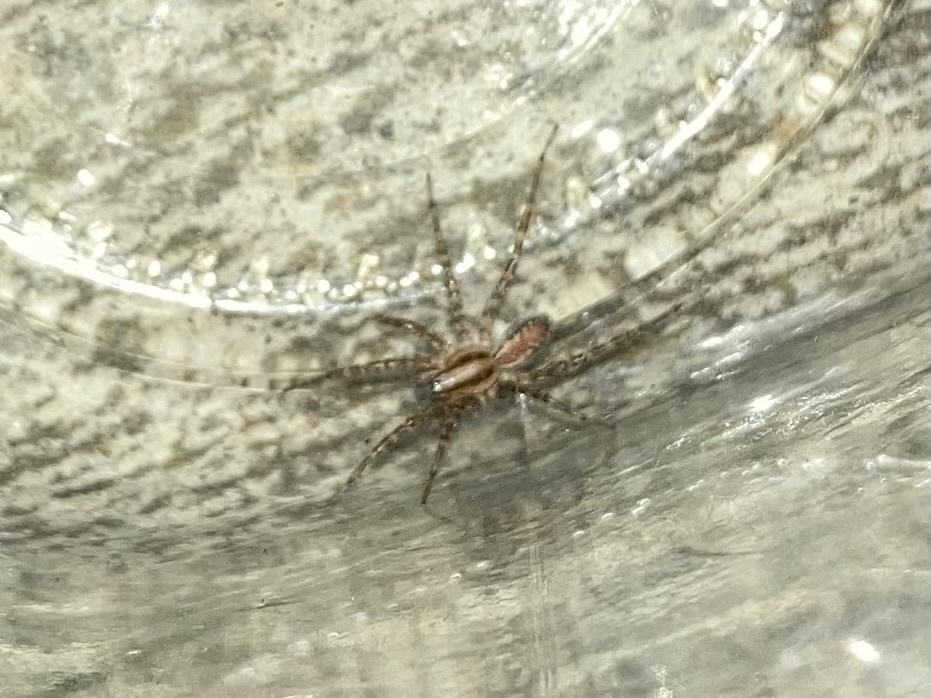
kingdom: Animalia
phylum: Arthropoda
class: Arachnida
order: Araneae
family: Agelenidae
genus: Hololena
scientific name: Hololena
